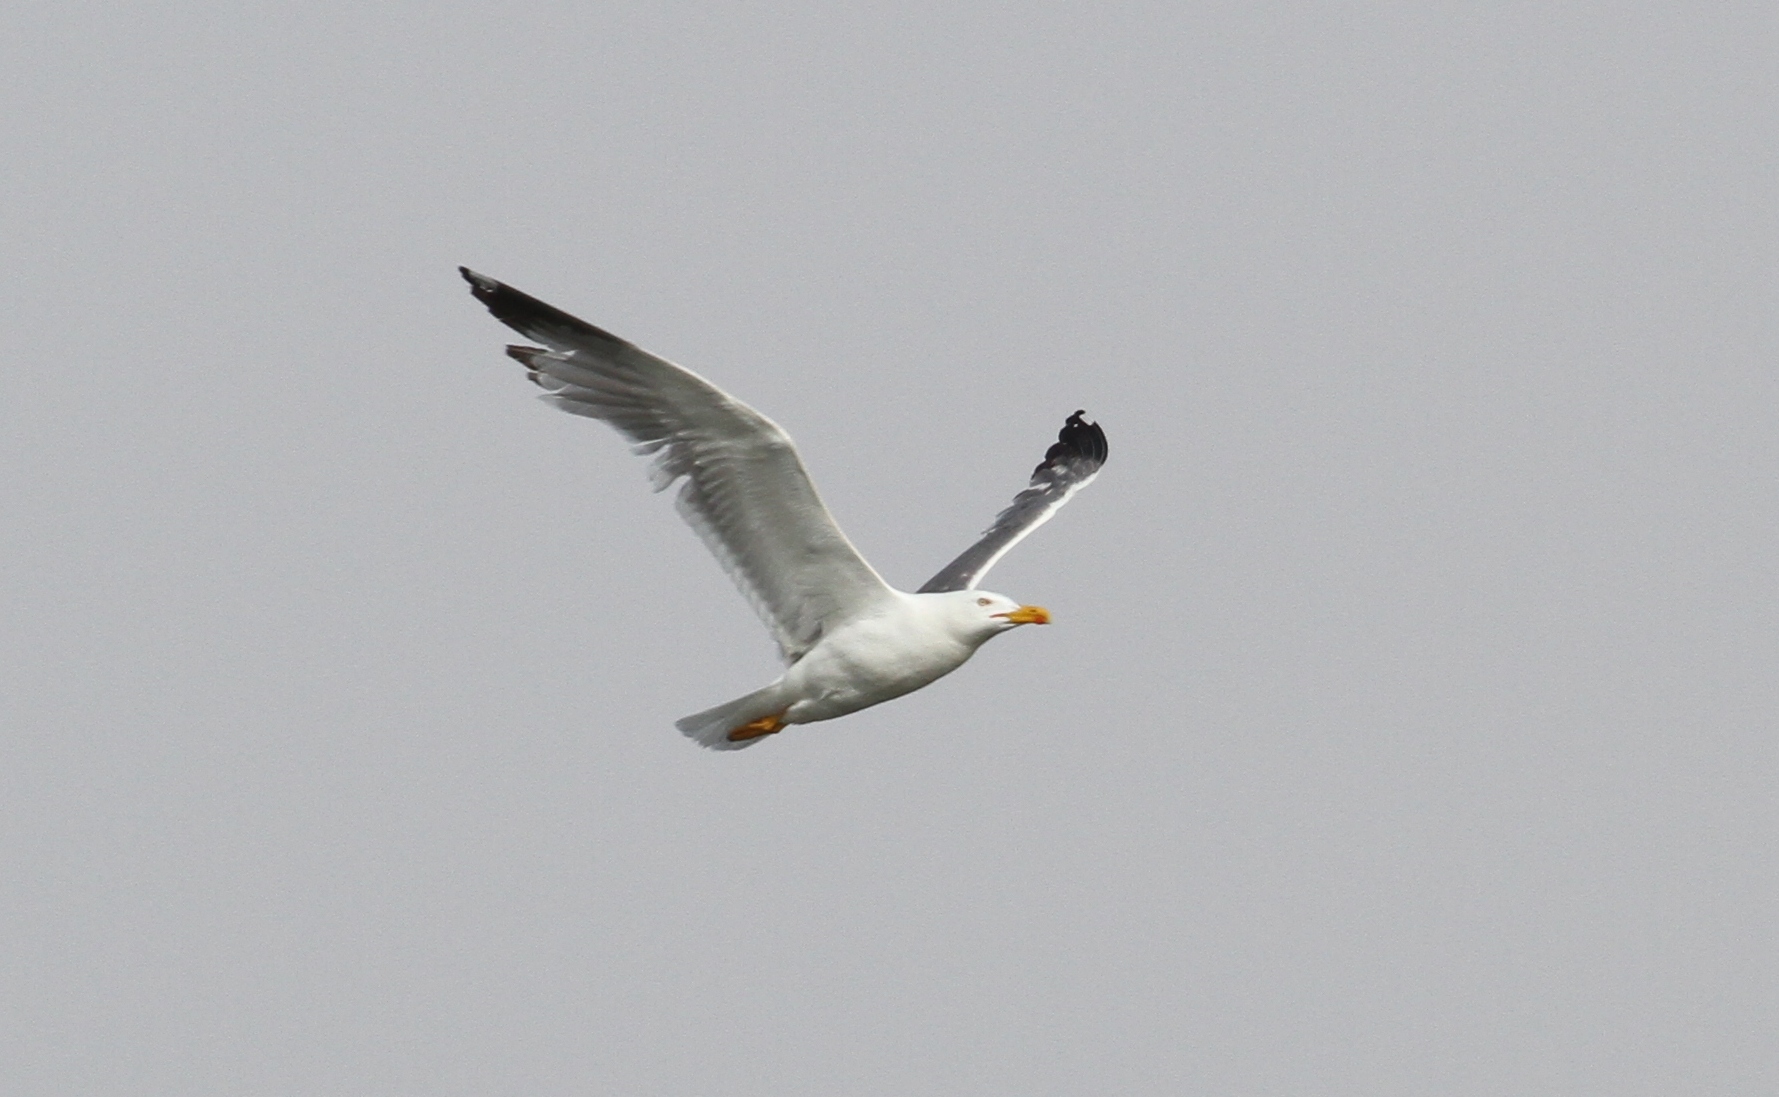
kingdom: Animalia
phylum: Chordata
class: Aves
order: Charadriiformes
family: Laridae
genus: Larus
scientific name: Larus michahellis
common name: Yellow-legged gull
